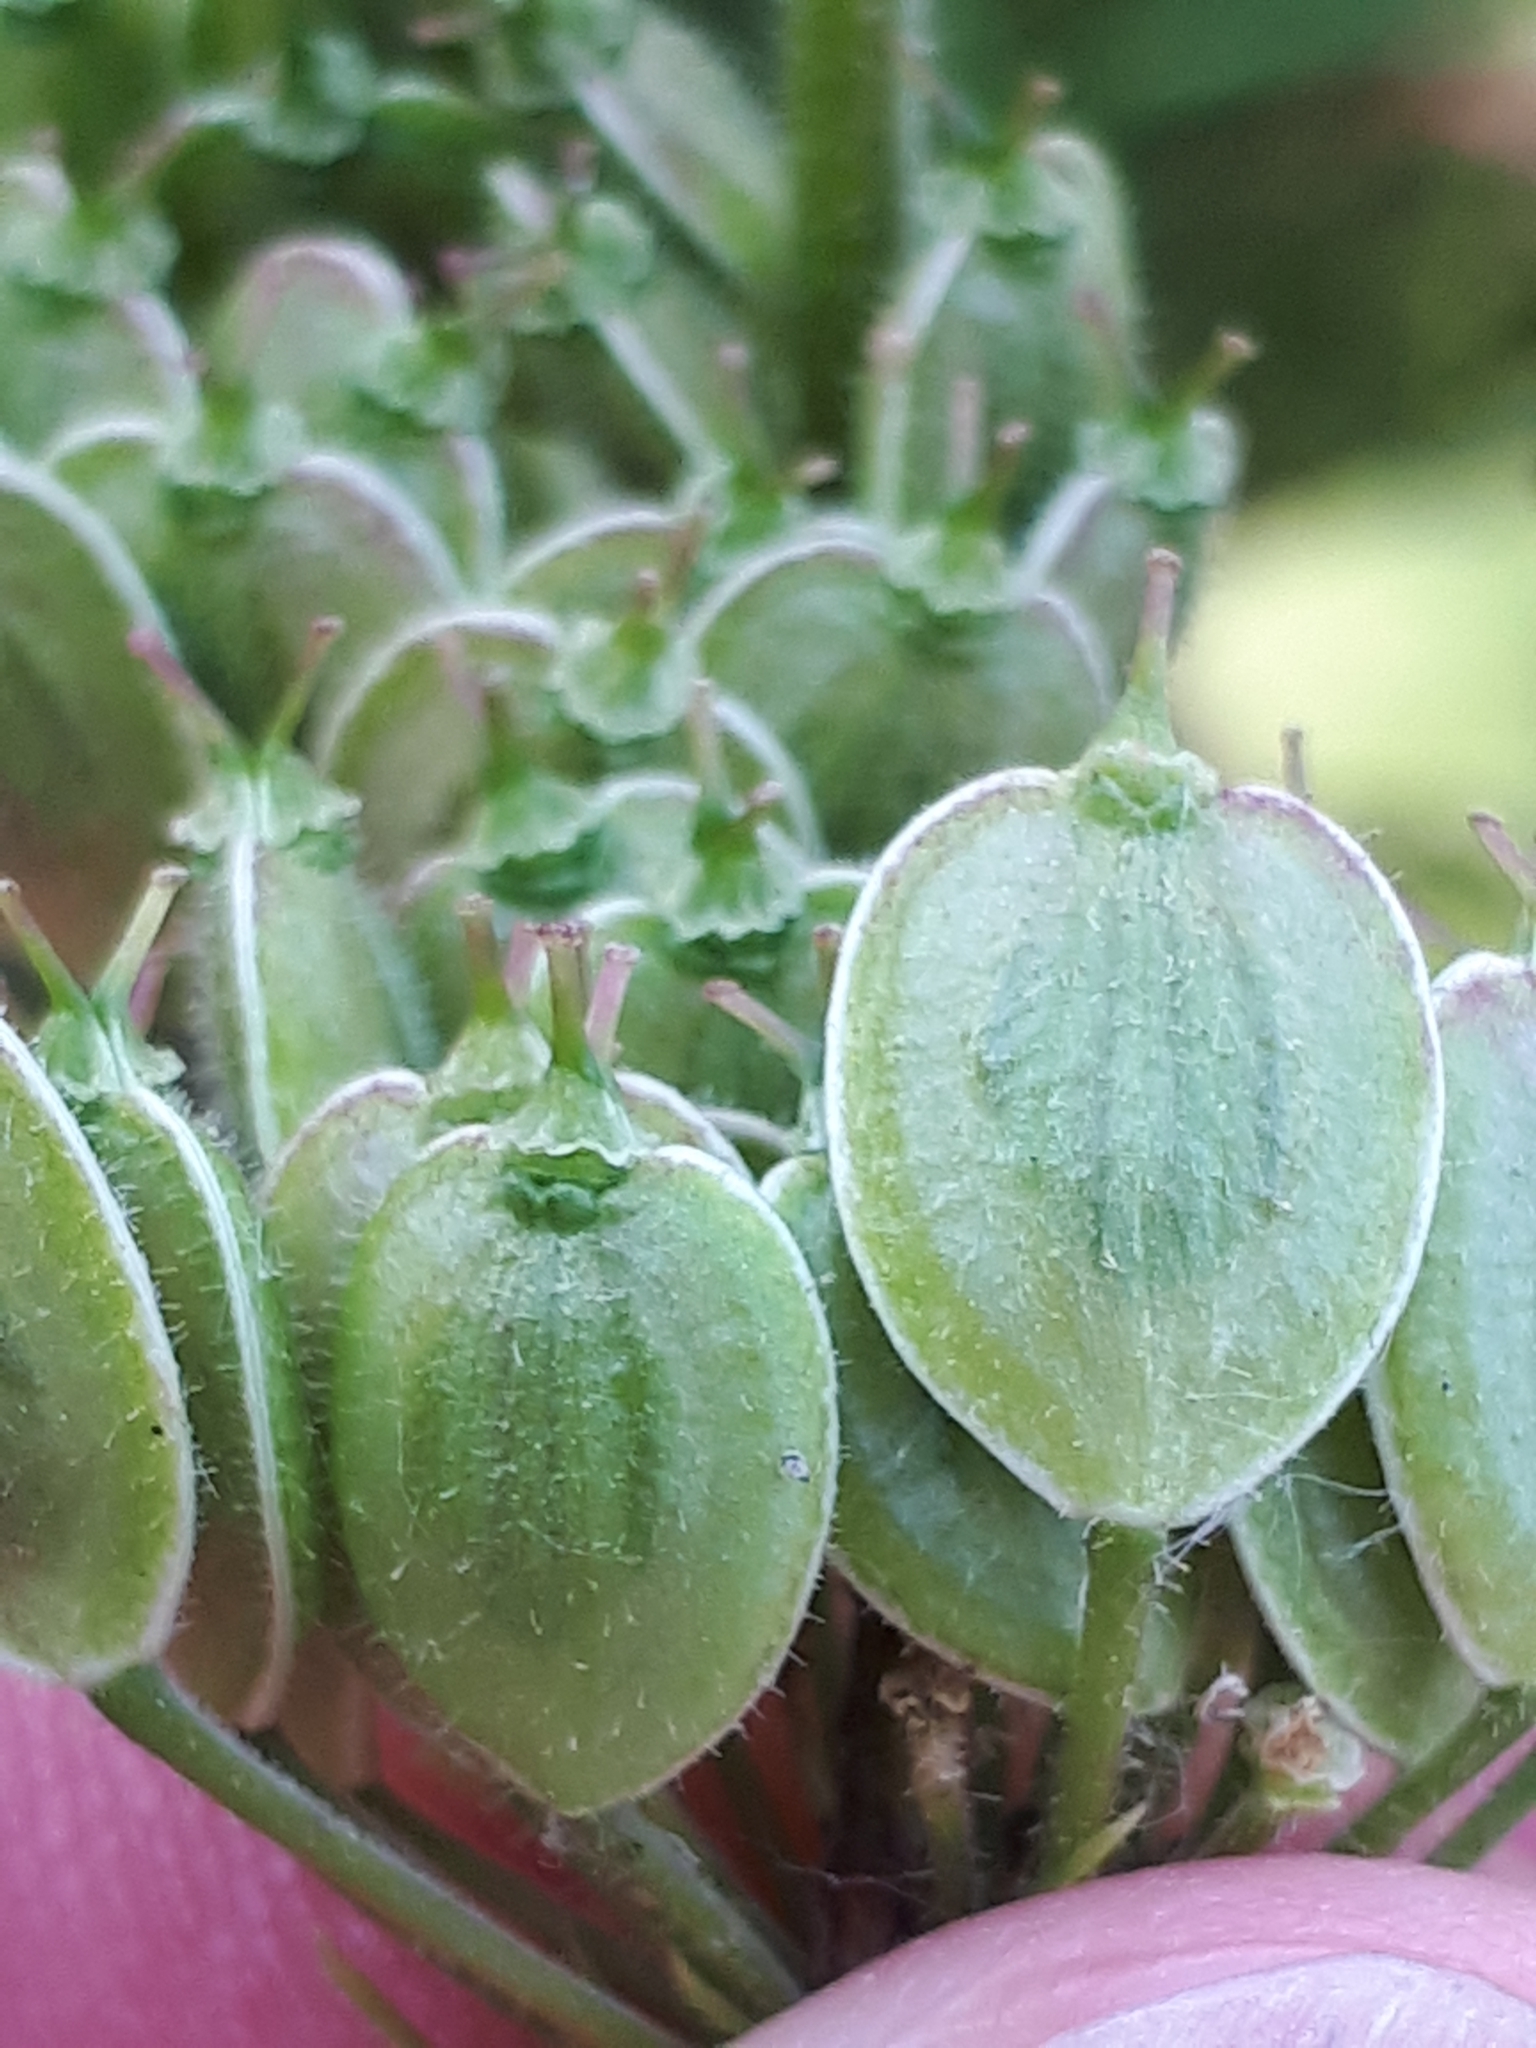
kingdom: Plantae
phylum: Tracheophyta
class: Magnoliopsida
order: Apiales
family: Apiaceae
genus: Heracleum
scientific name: Heracleum sphondylium
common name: Hogweed
